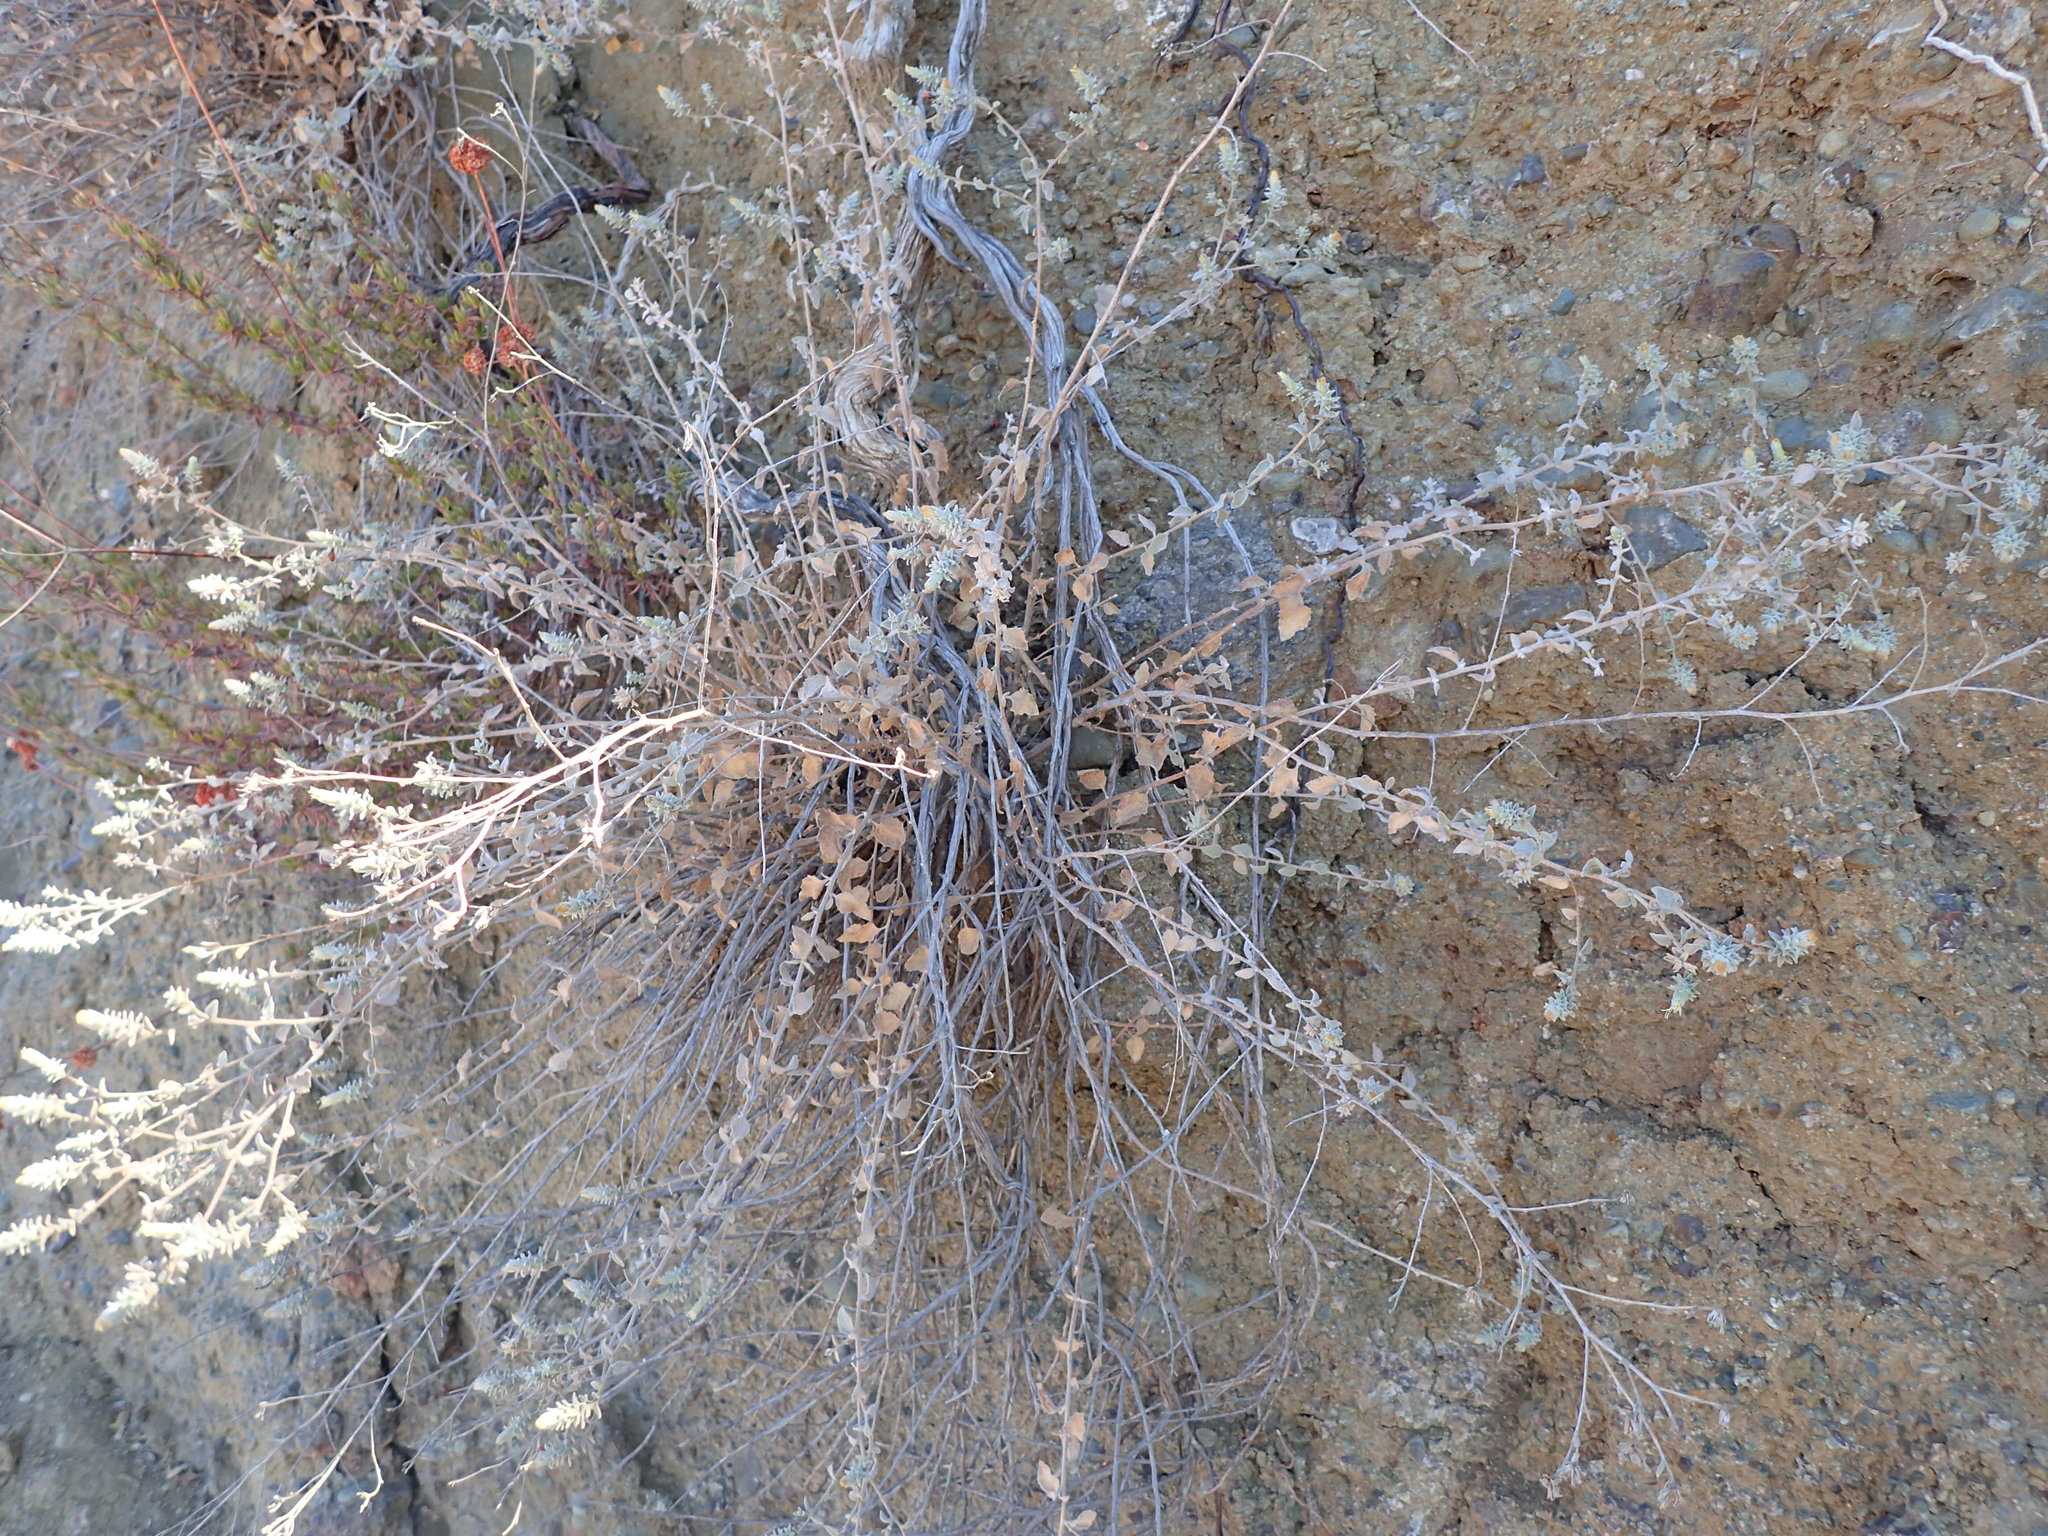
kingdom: Plantae
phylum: Tracheophyta
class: Magnoliopsida
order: Asterales
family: Asteraceae
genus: Brickellia
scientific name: Brickellia nevinii
